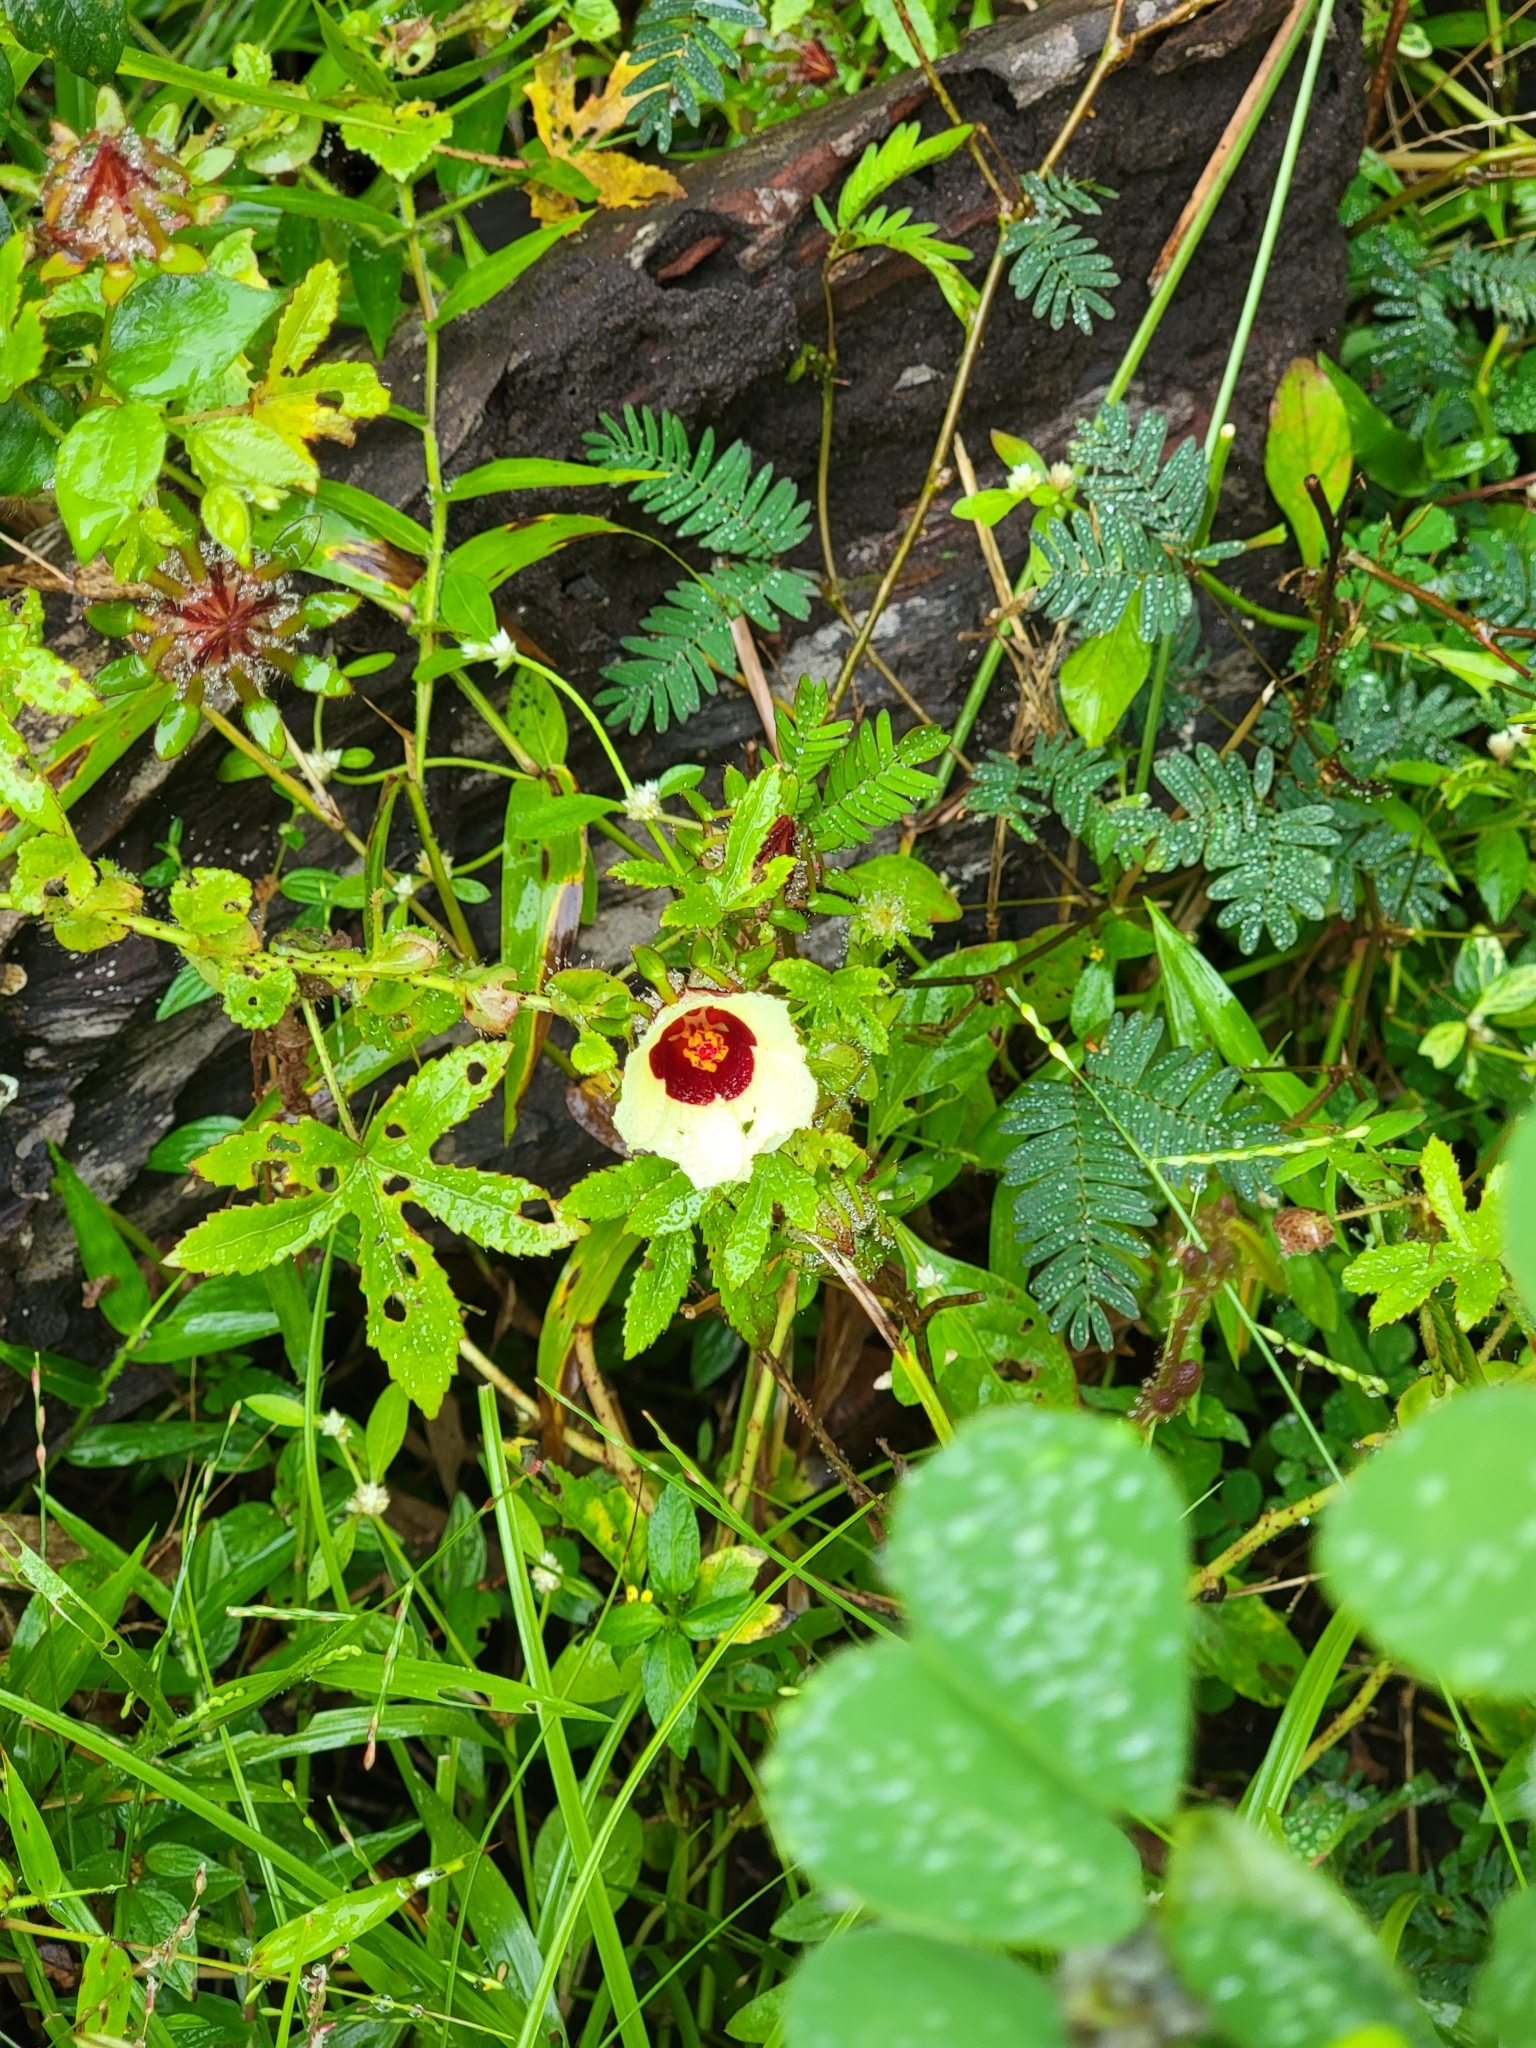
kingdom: Plantae
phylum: Tracheophyta
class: Magnoliopsida
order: Malvales
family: Malvaceae
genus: Hibiscus
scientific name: Hibiscus surattensis
